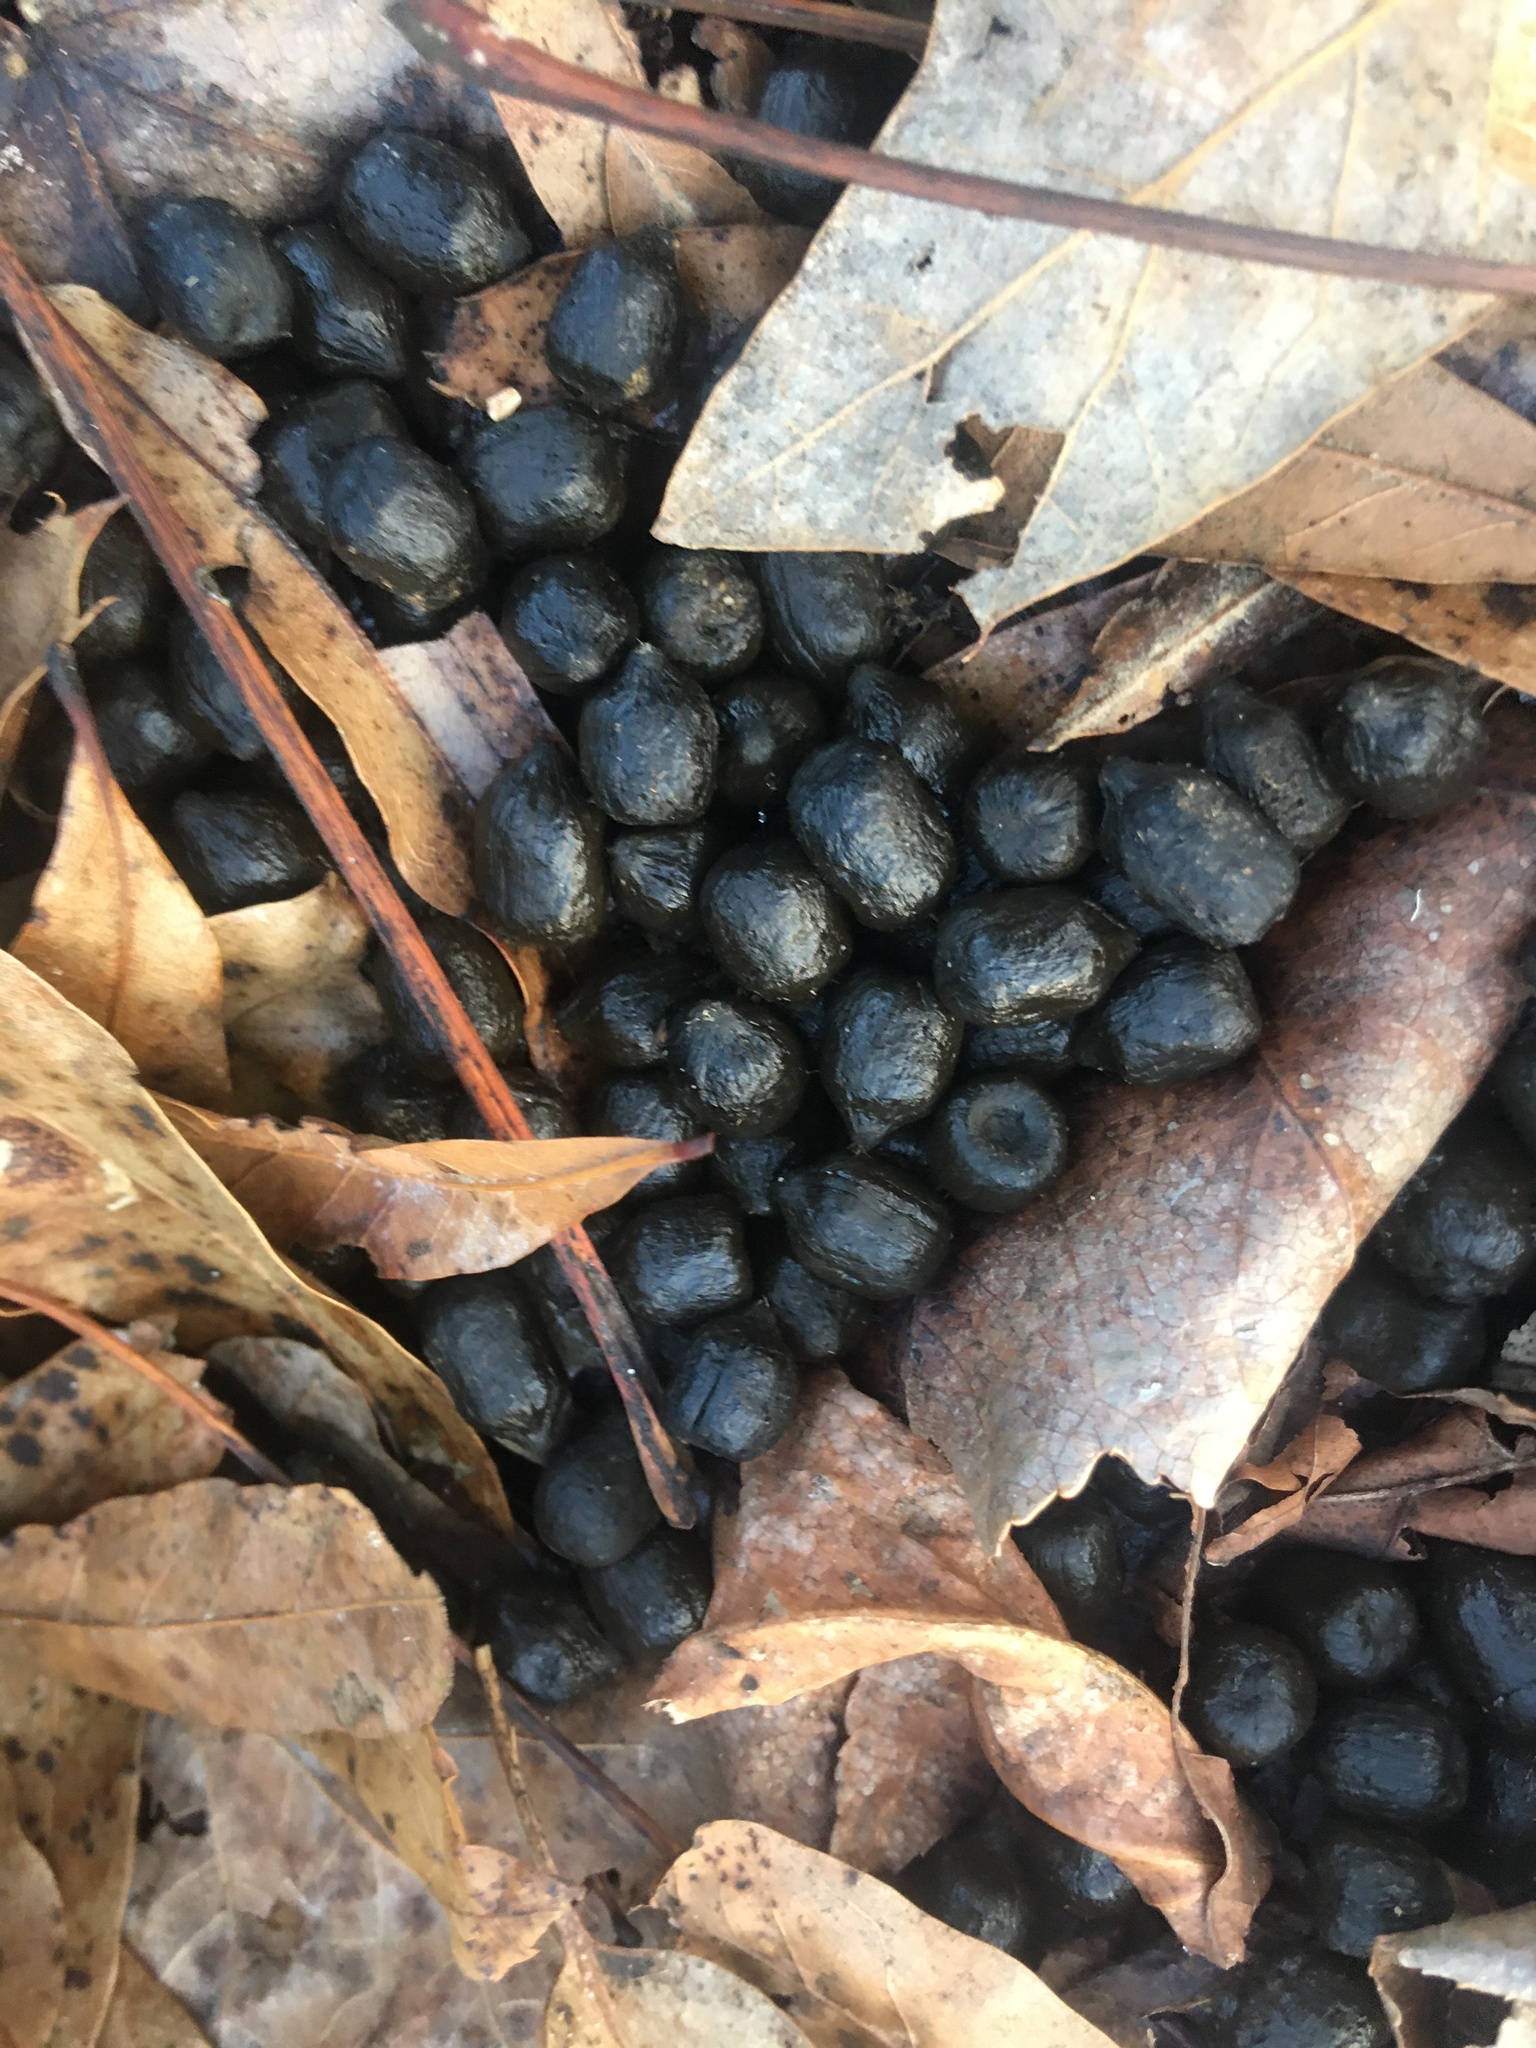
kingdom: Animalia
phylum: Chordata
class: Mammalia
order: Artiodactyla
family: Cervidae
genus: Odocoileus
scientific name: Odocoileus virginianus
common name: White-tailed deer
